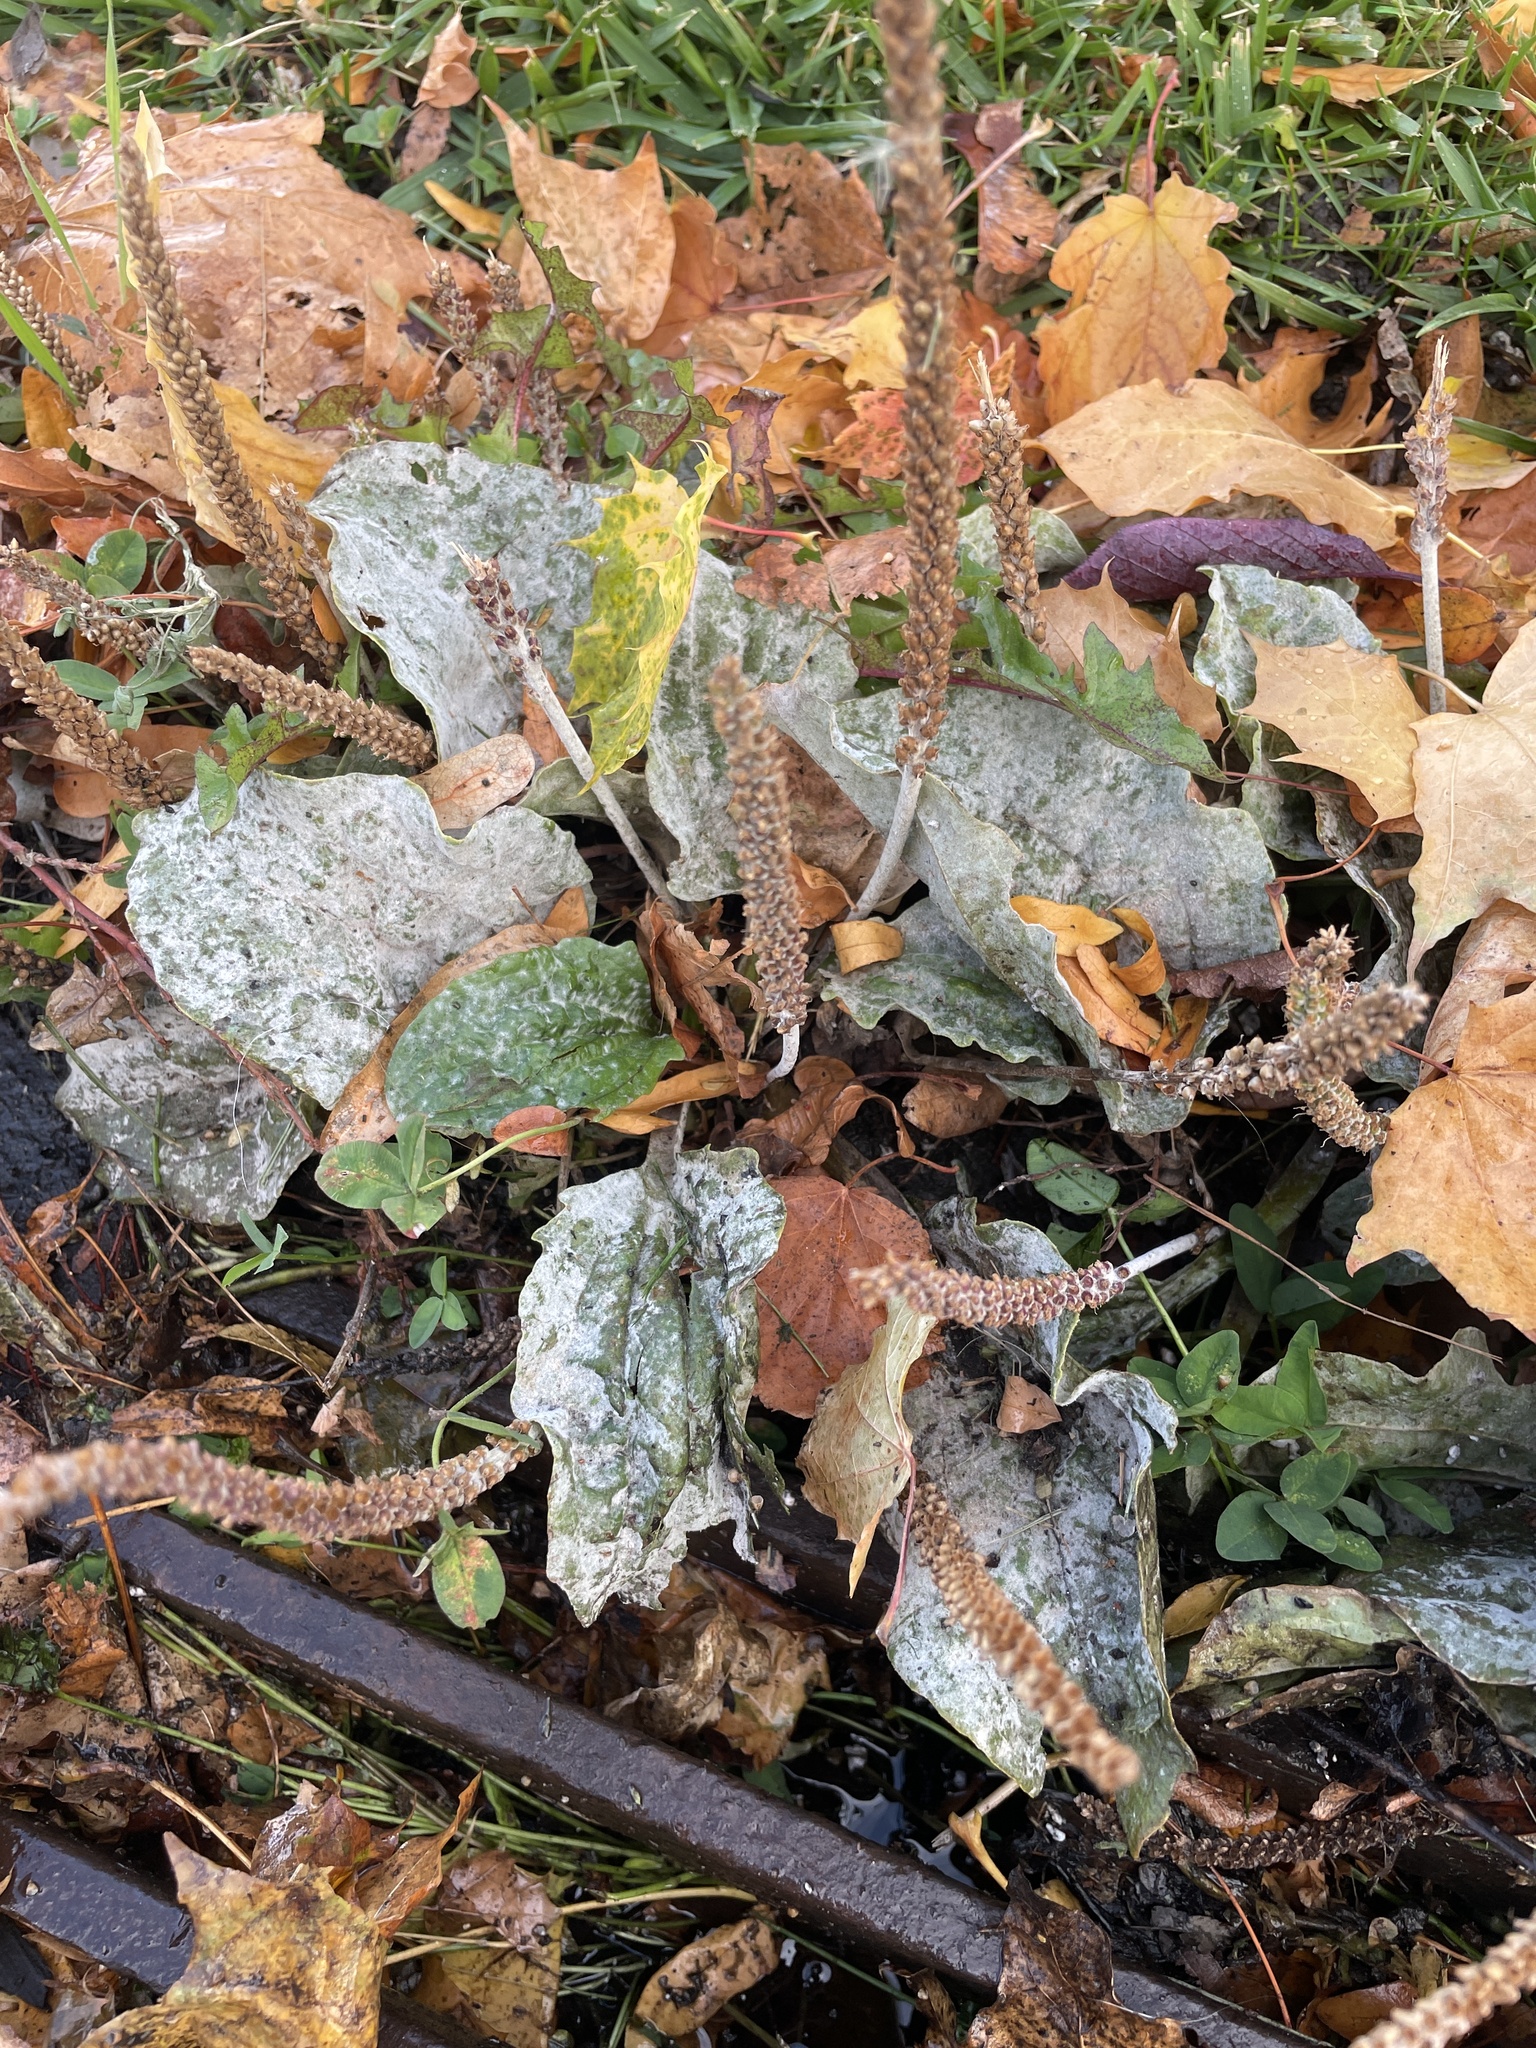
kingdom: Fungi
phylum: Ascomycota
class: Leotiomycetes
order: Helotiales
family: Erysiphaceae
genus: Golovinomyces
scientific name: Golovinomyces sordidus
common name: Plantain mildew
